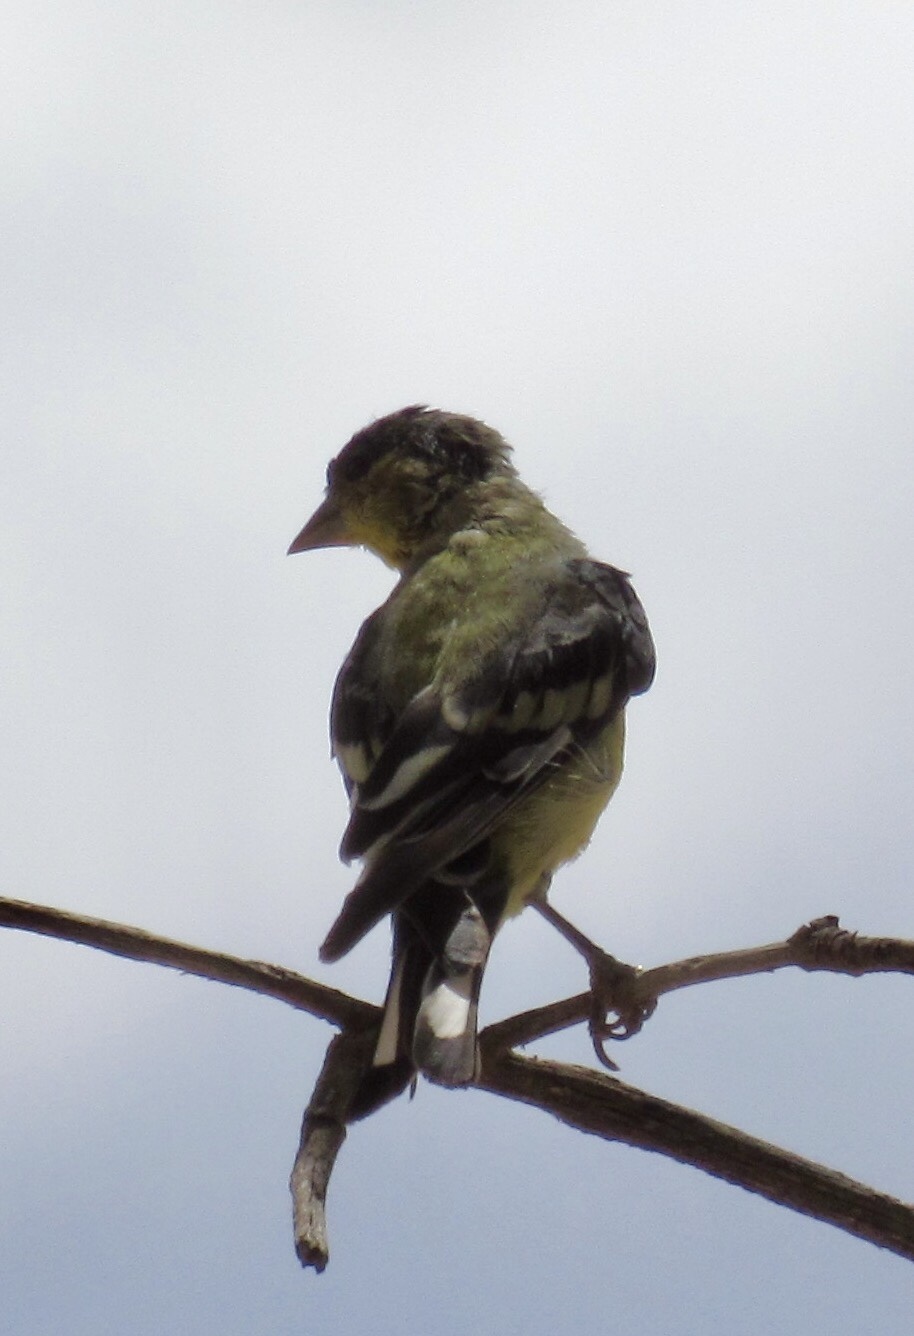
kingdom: Animalia
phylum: Chordata
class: Aves
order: Passeriformes
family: Fringillidae
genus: Spinus
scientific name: Spinus psaltria
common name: Lesser goldfinch
